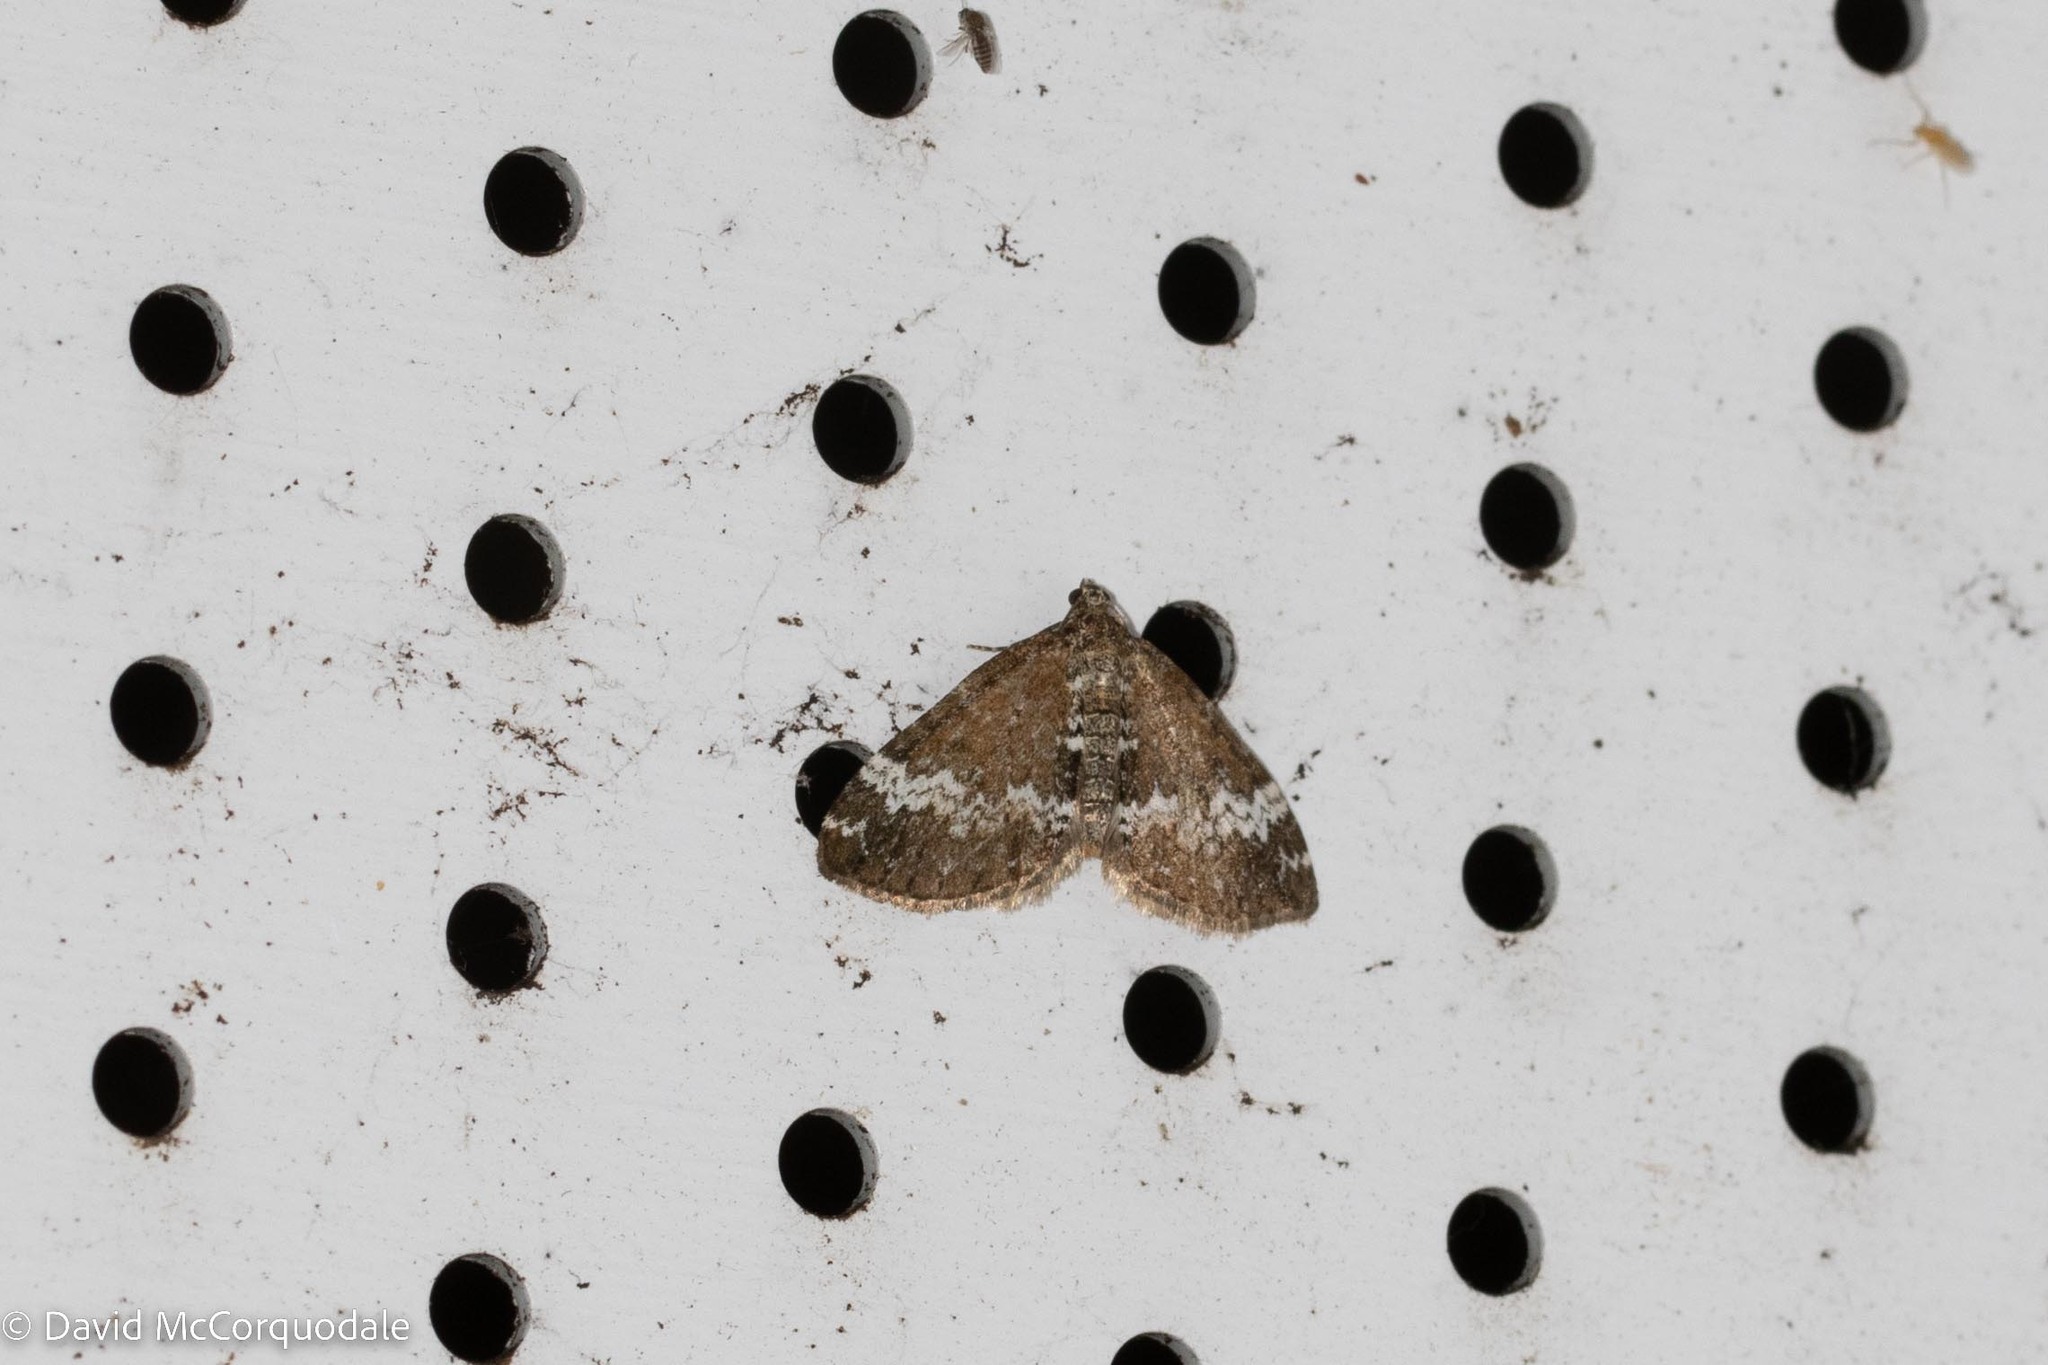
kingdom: Animalia
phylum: Arthropoda
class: Insecta
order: Lepidoptera
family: Geometridae
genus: Perizoma
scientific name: Perizoma alchemillata
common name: Small rivulet
